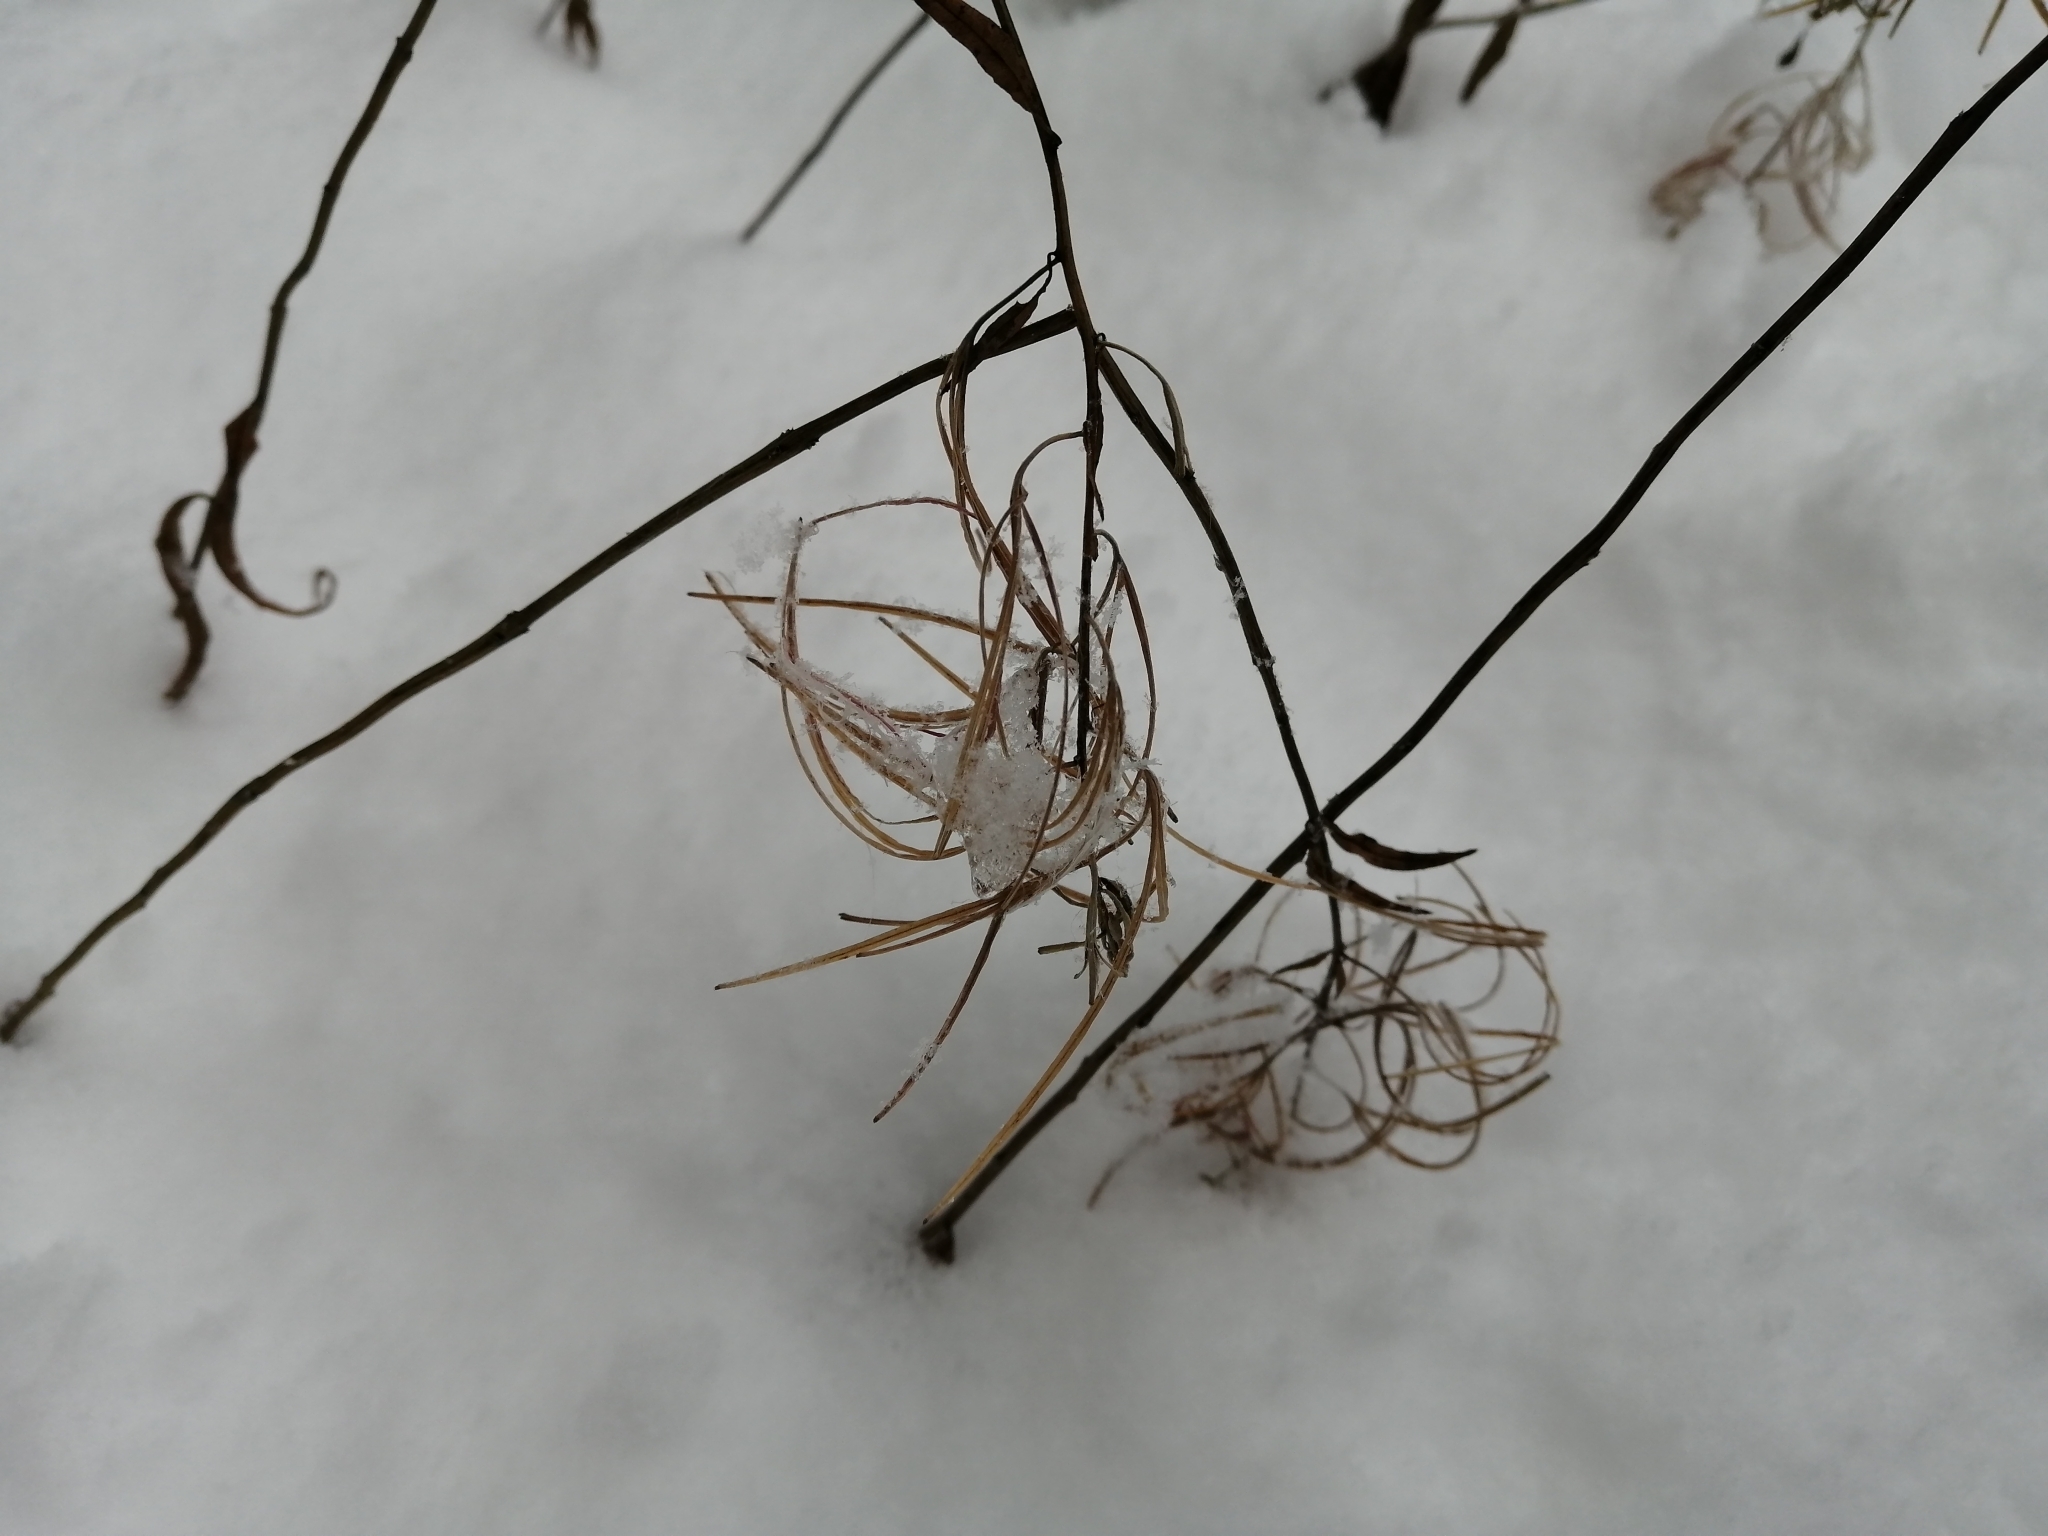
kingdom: Plantae
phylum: Tracheophyta
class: Magnoliopsida
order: Myrtales
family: Onagraceae
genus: Chamaenerion
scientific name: Chamaenerion angustifolium
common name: Fireweed
